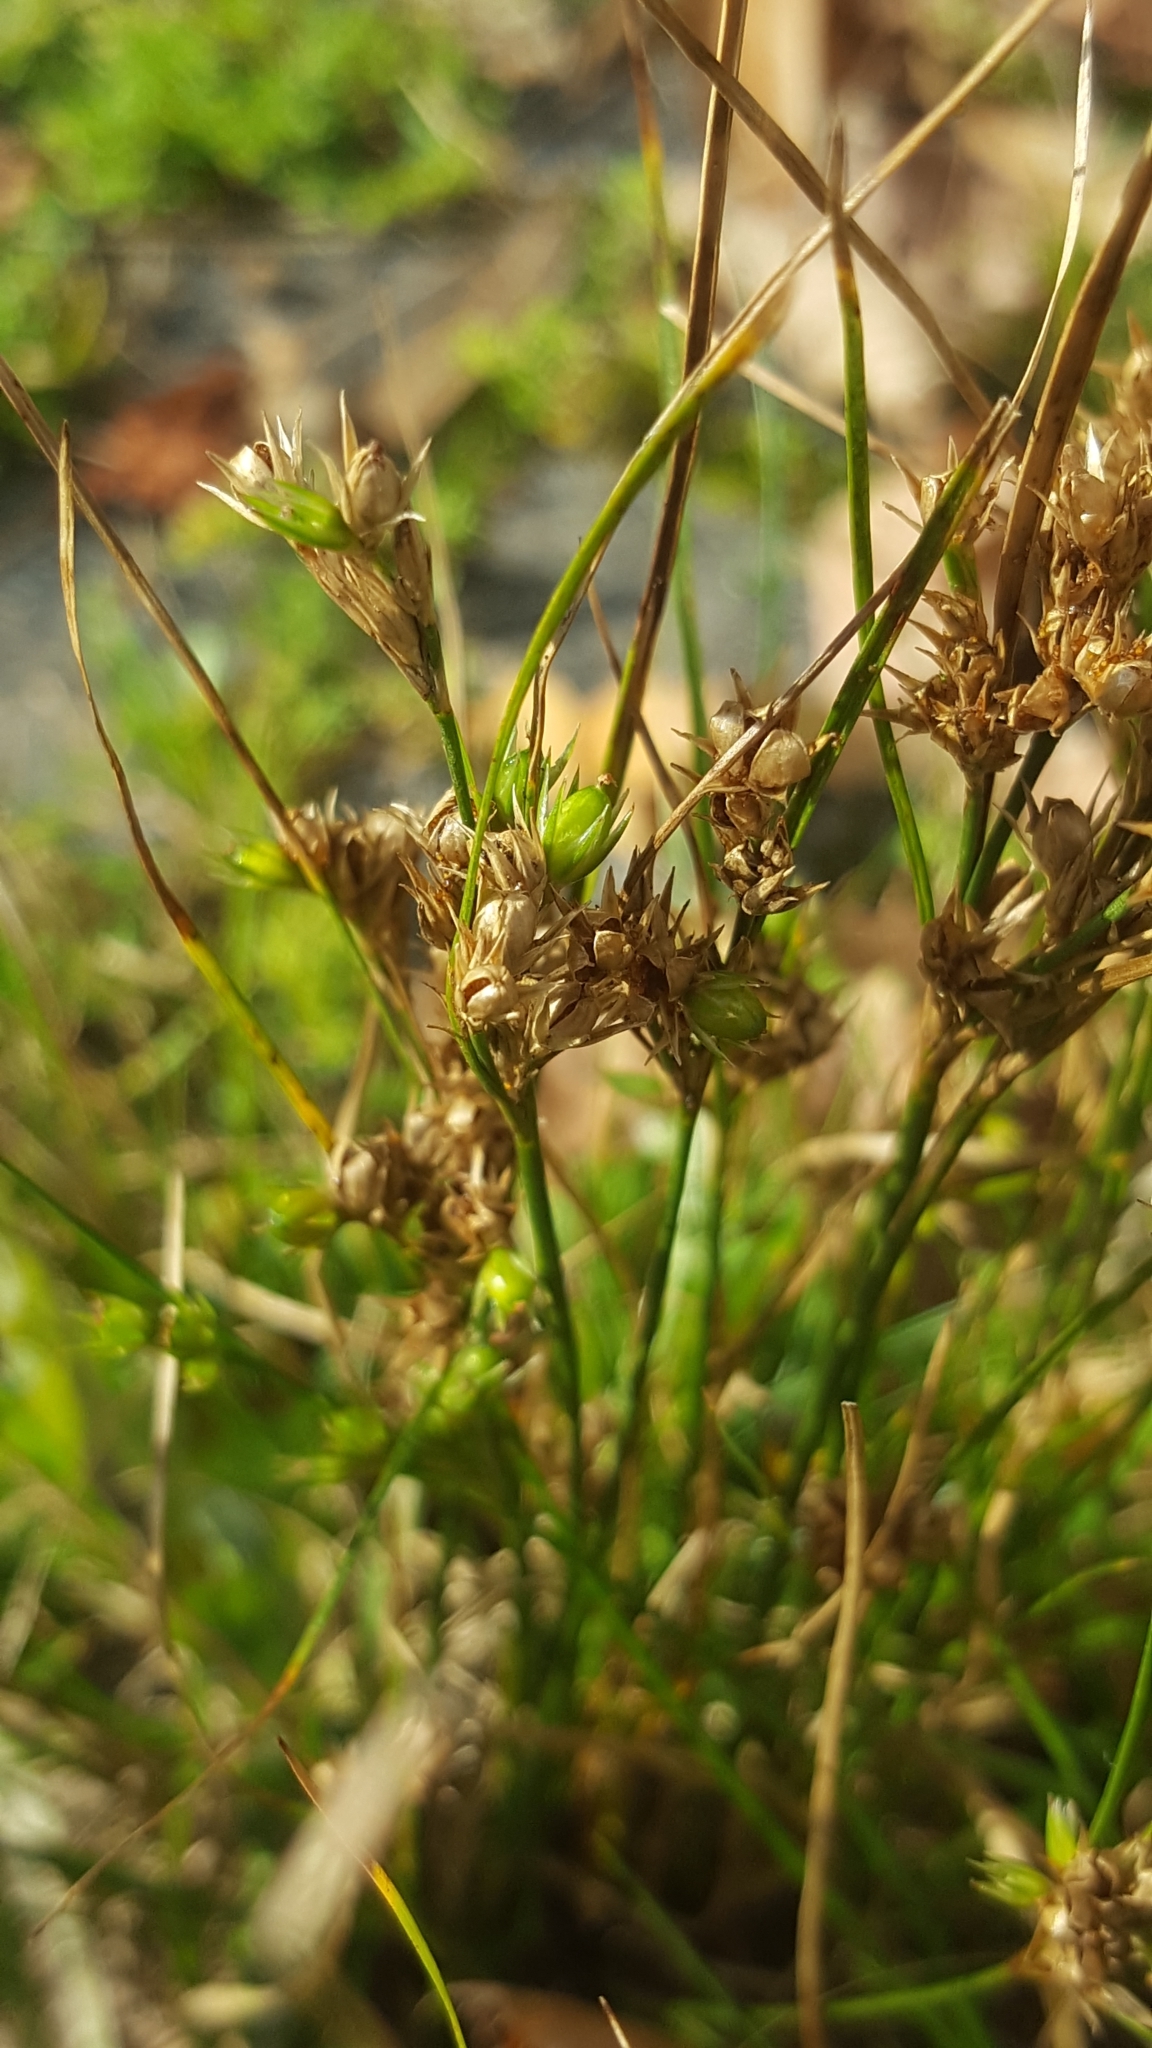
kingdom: Plantae
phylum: Tracheophyta
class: Liliopsida
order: Poales
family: Juncaceae
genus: Juncus
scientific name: Juncus tenuis
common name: Slender rush
